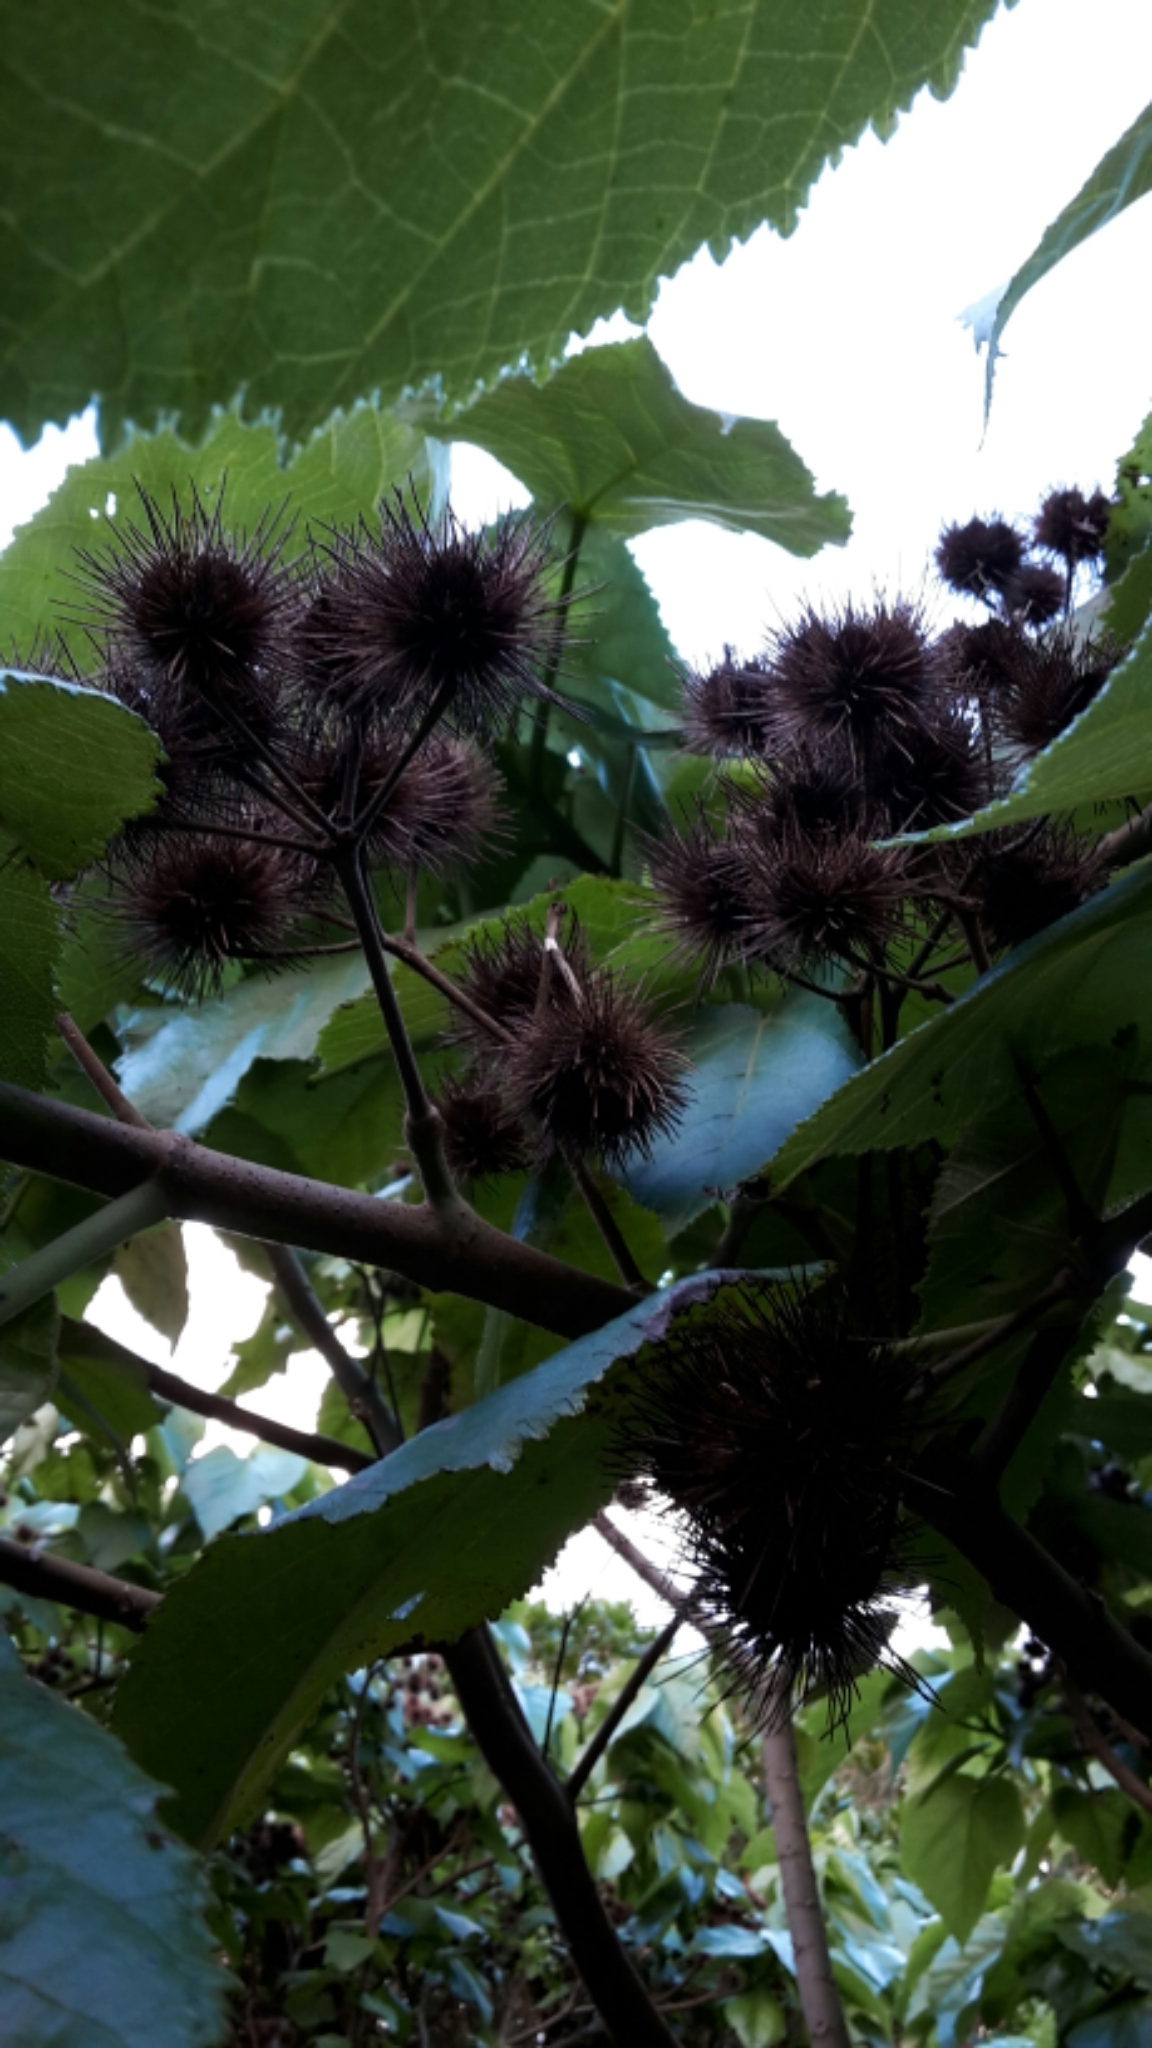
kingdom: Plantae
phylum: Tracheophyta
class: Magnoliopsida
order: Malvales
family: Malvaceae
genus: Entelea
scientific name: Entelea arborescens
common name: New zealand-mulberry
